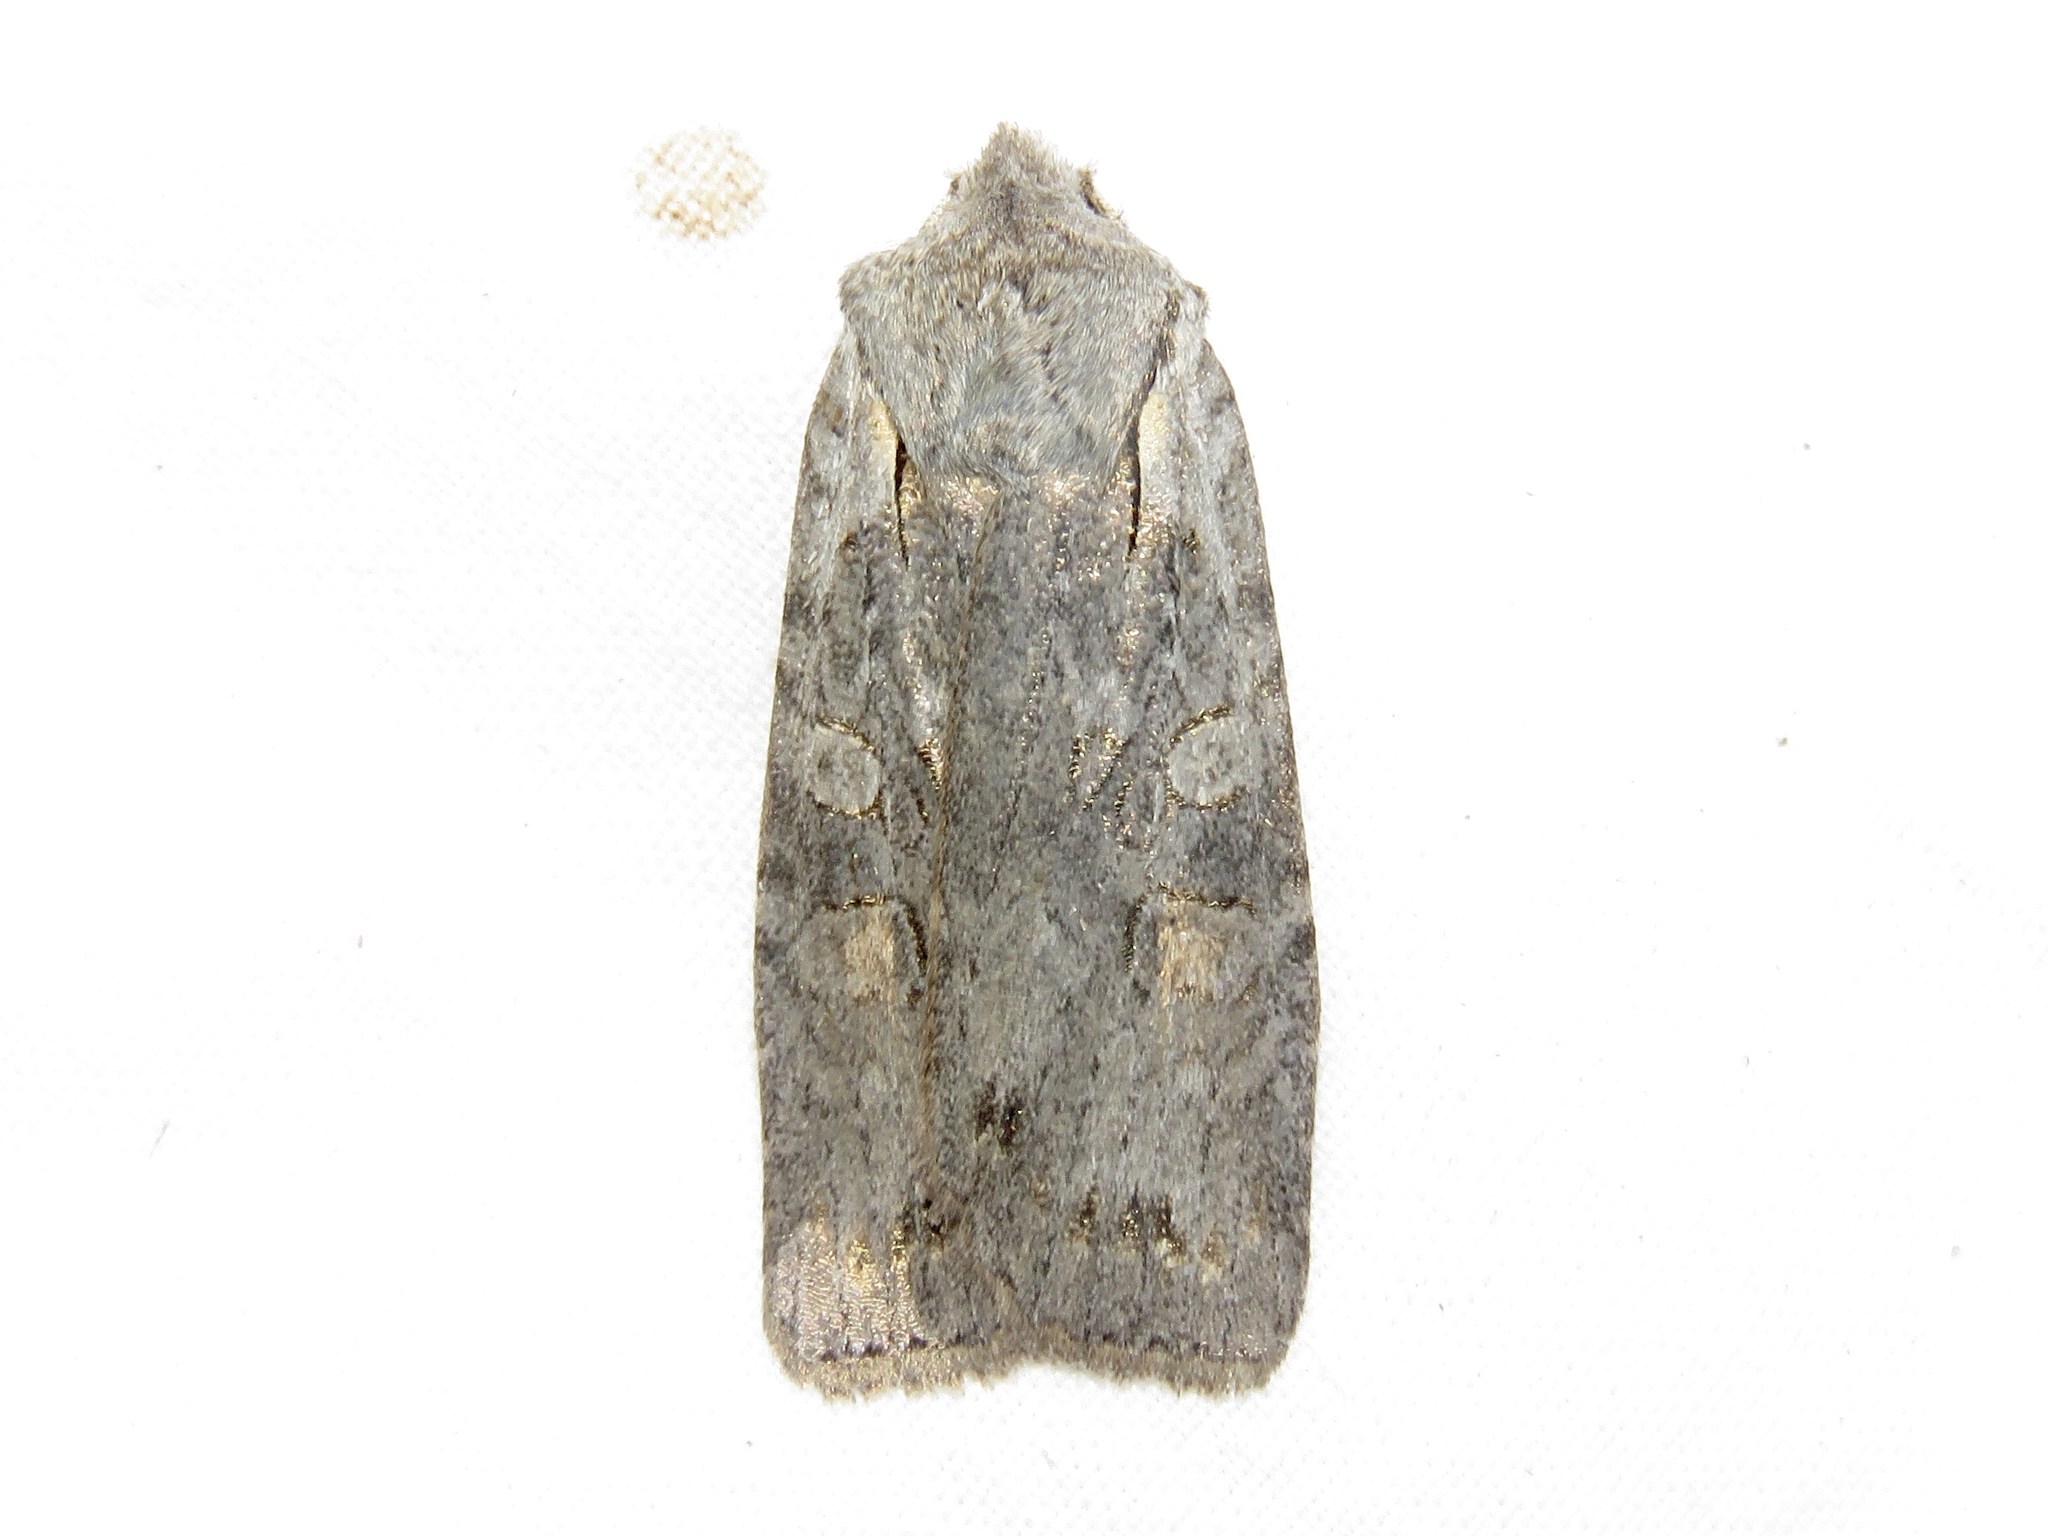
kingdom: Animalia
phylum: Arthropoda
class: Insecta
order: Lepidoptera
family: Noctuidae
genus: Lithophane
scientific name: Lithophane antennata
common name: Ashen pinion
